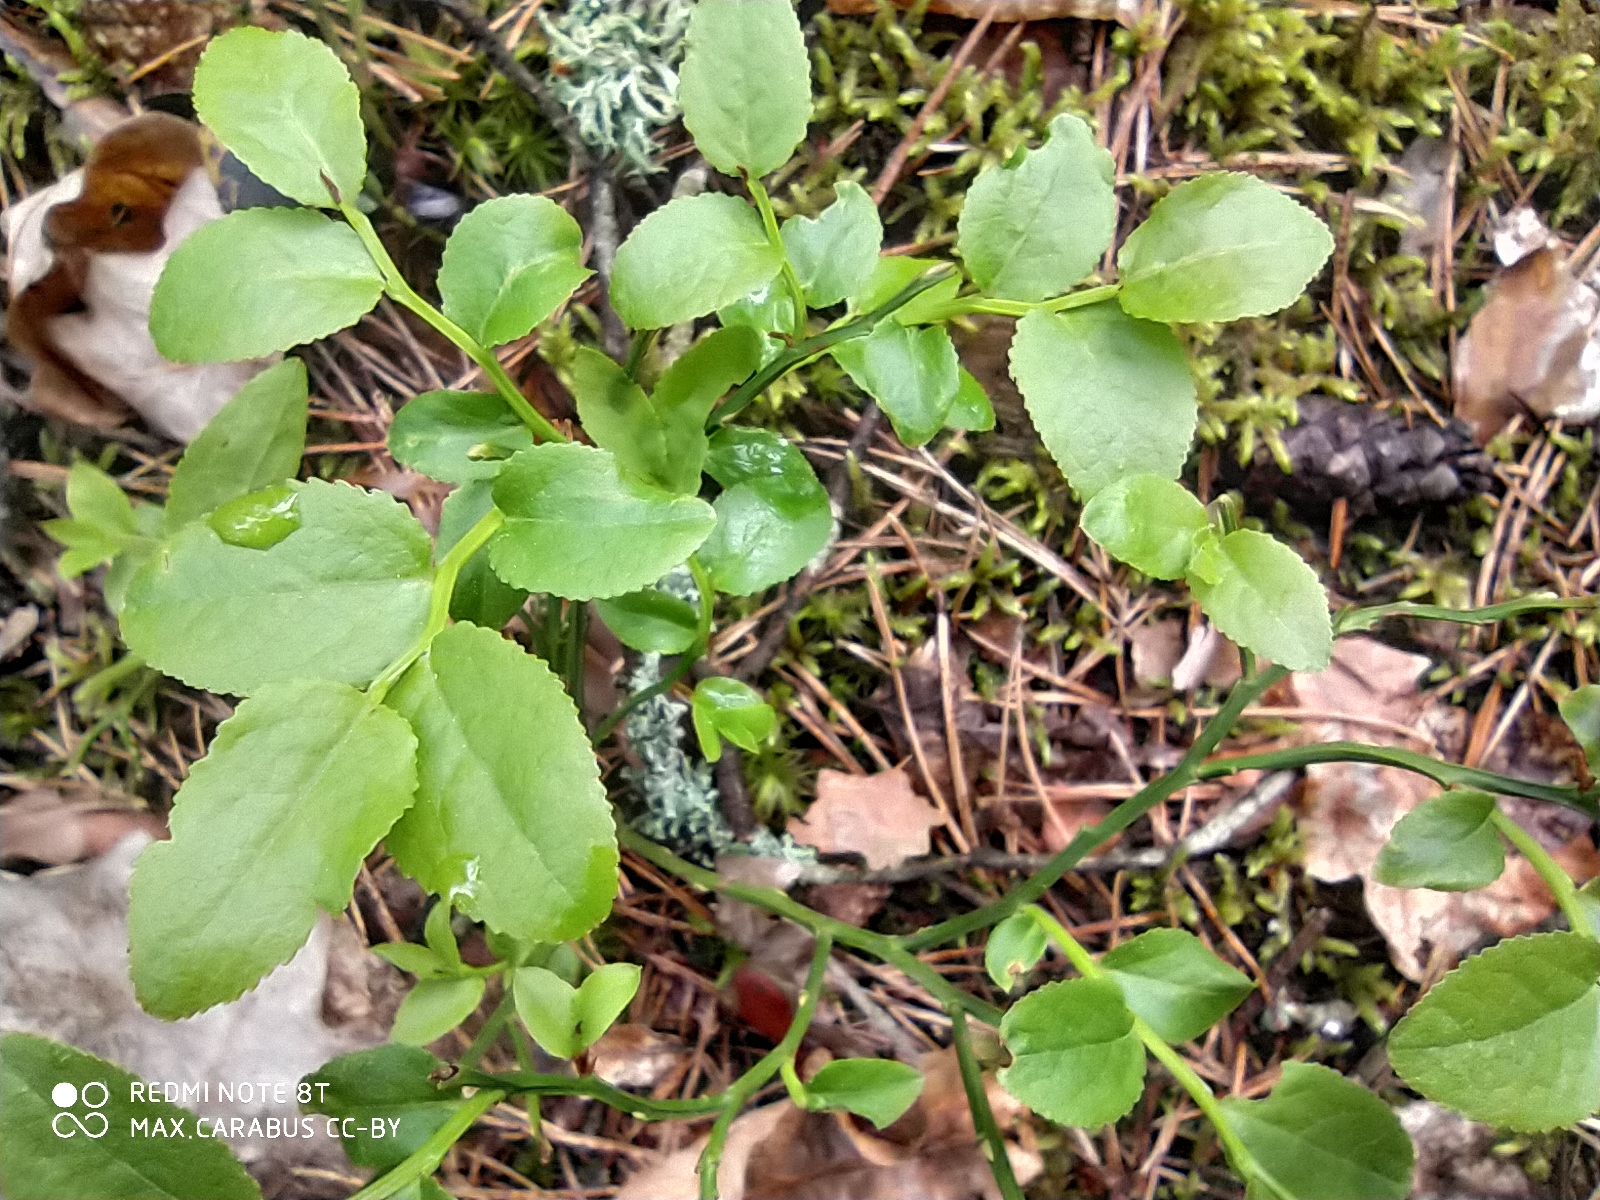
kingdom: Plantae
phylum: Tracheophyta
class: Magnoliopsida
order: Ericales
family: Ericaceae
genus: Vaccinium
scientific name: Vaccinium myrtillus
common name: Bilberry
